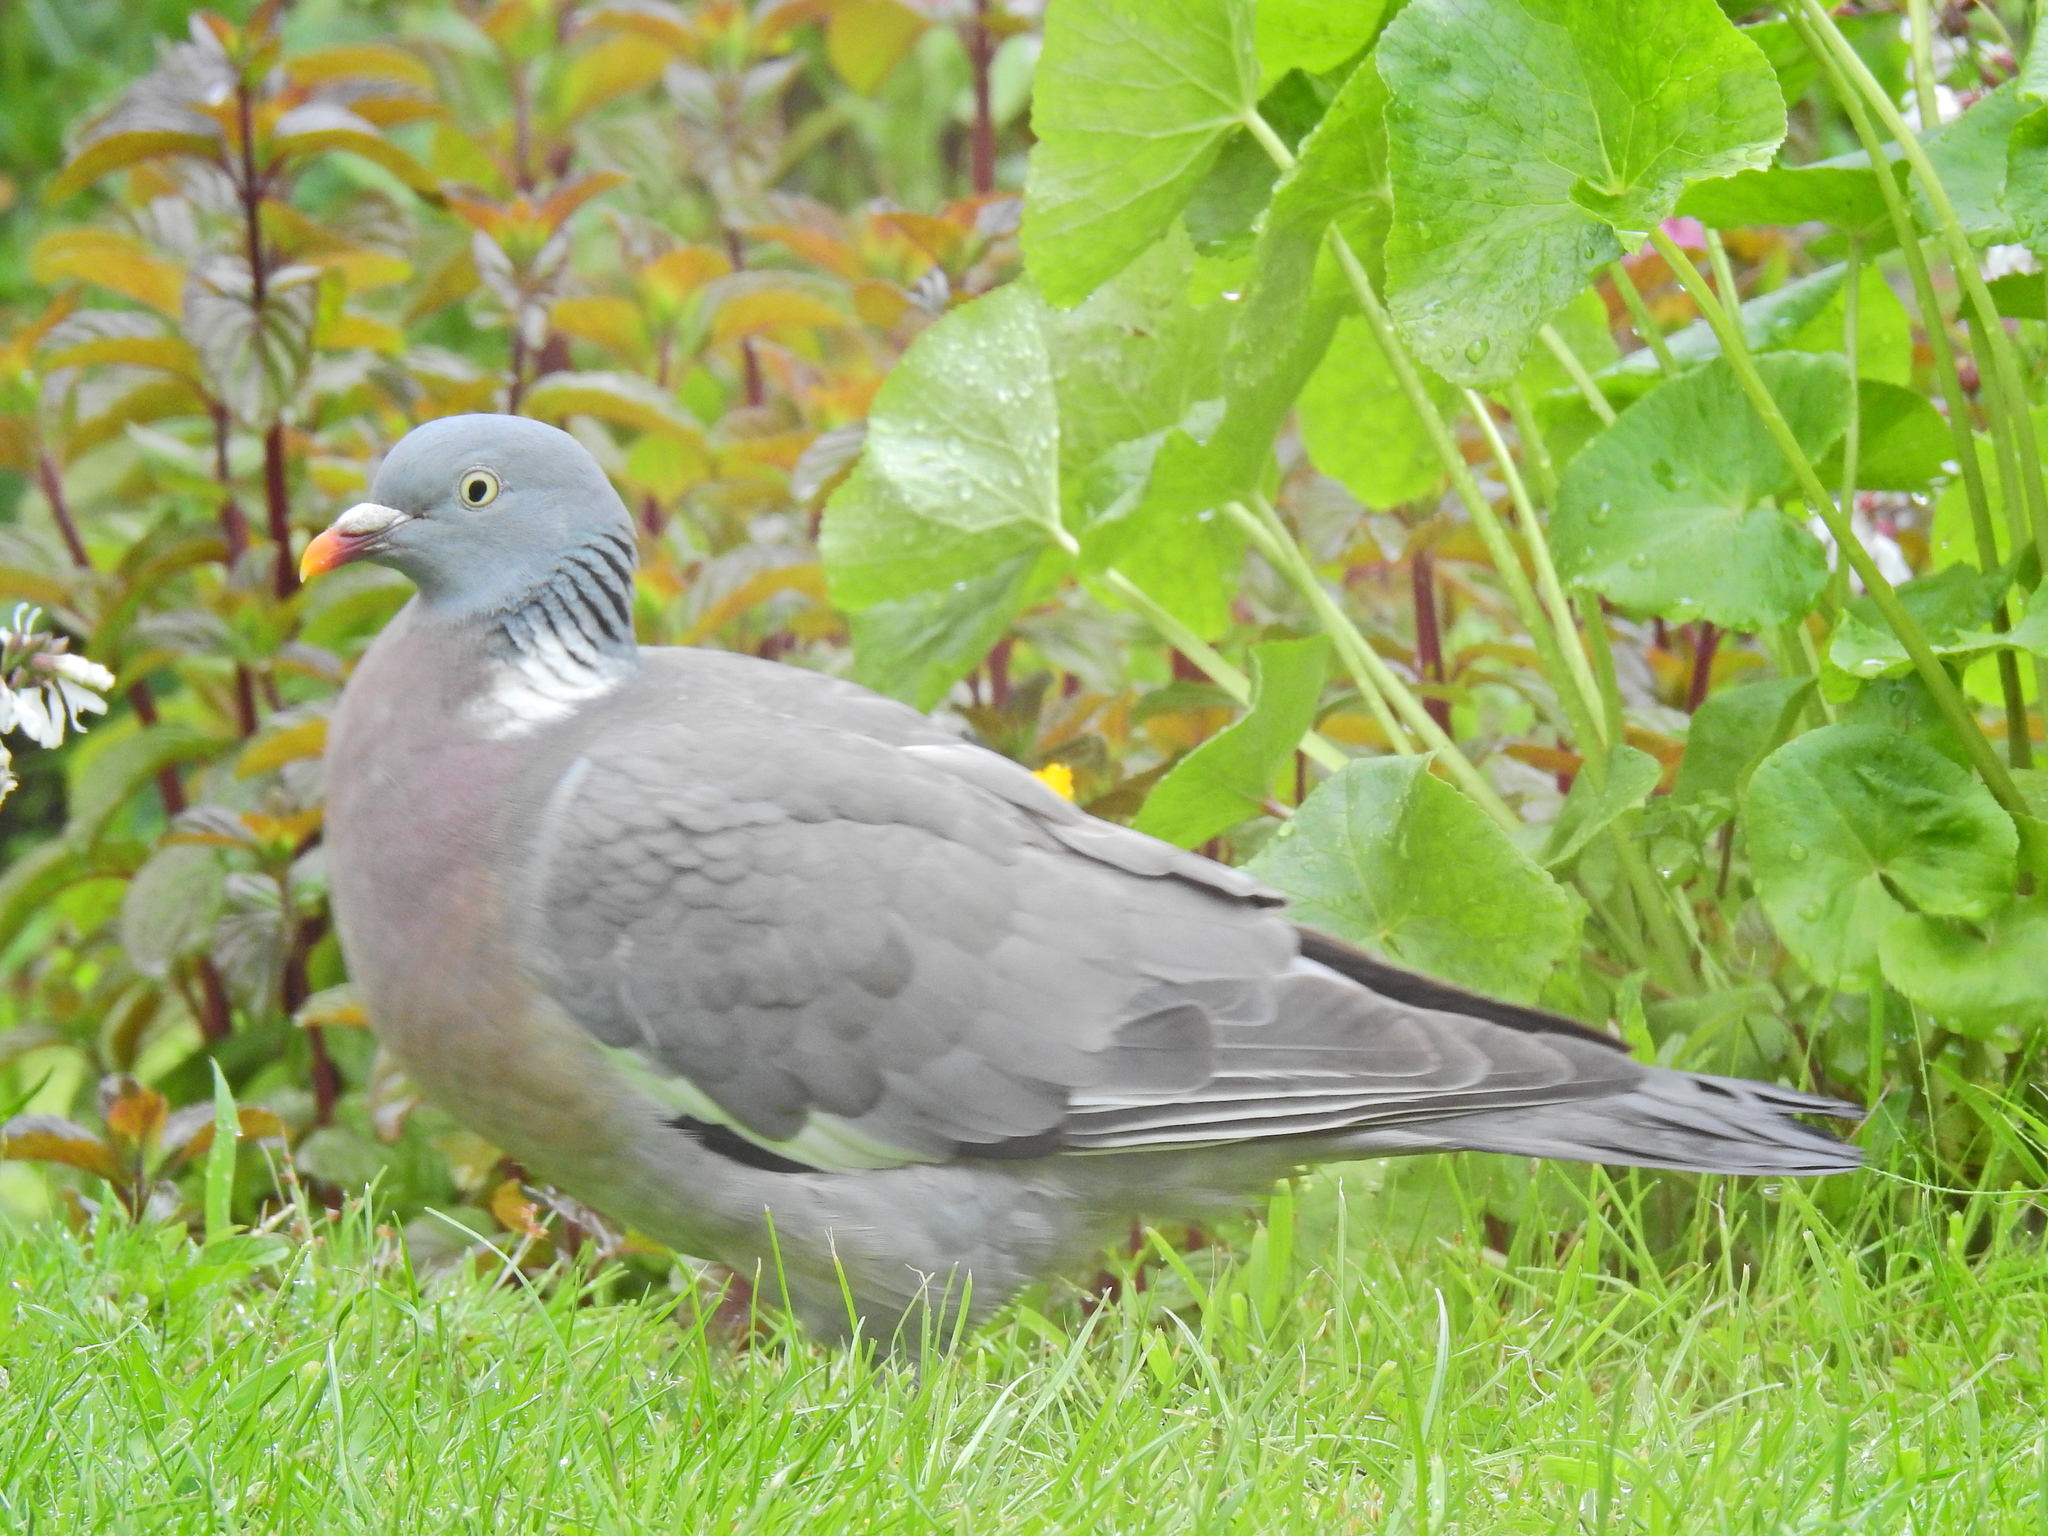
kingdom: Animalia
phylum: Chordata
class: Aves
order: Columbiformes
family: Columbidae
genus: Columba
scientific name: Columba palumbus
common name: Common wood pigeon
